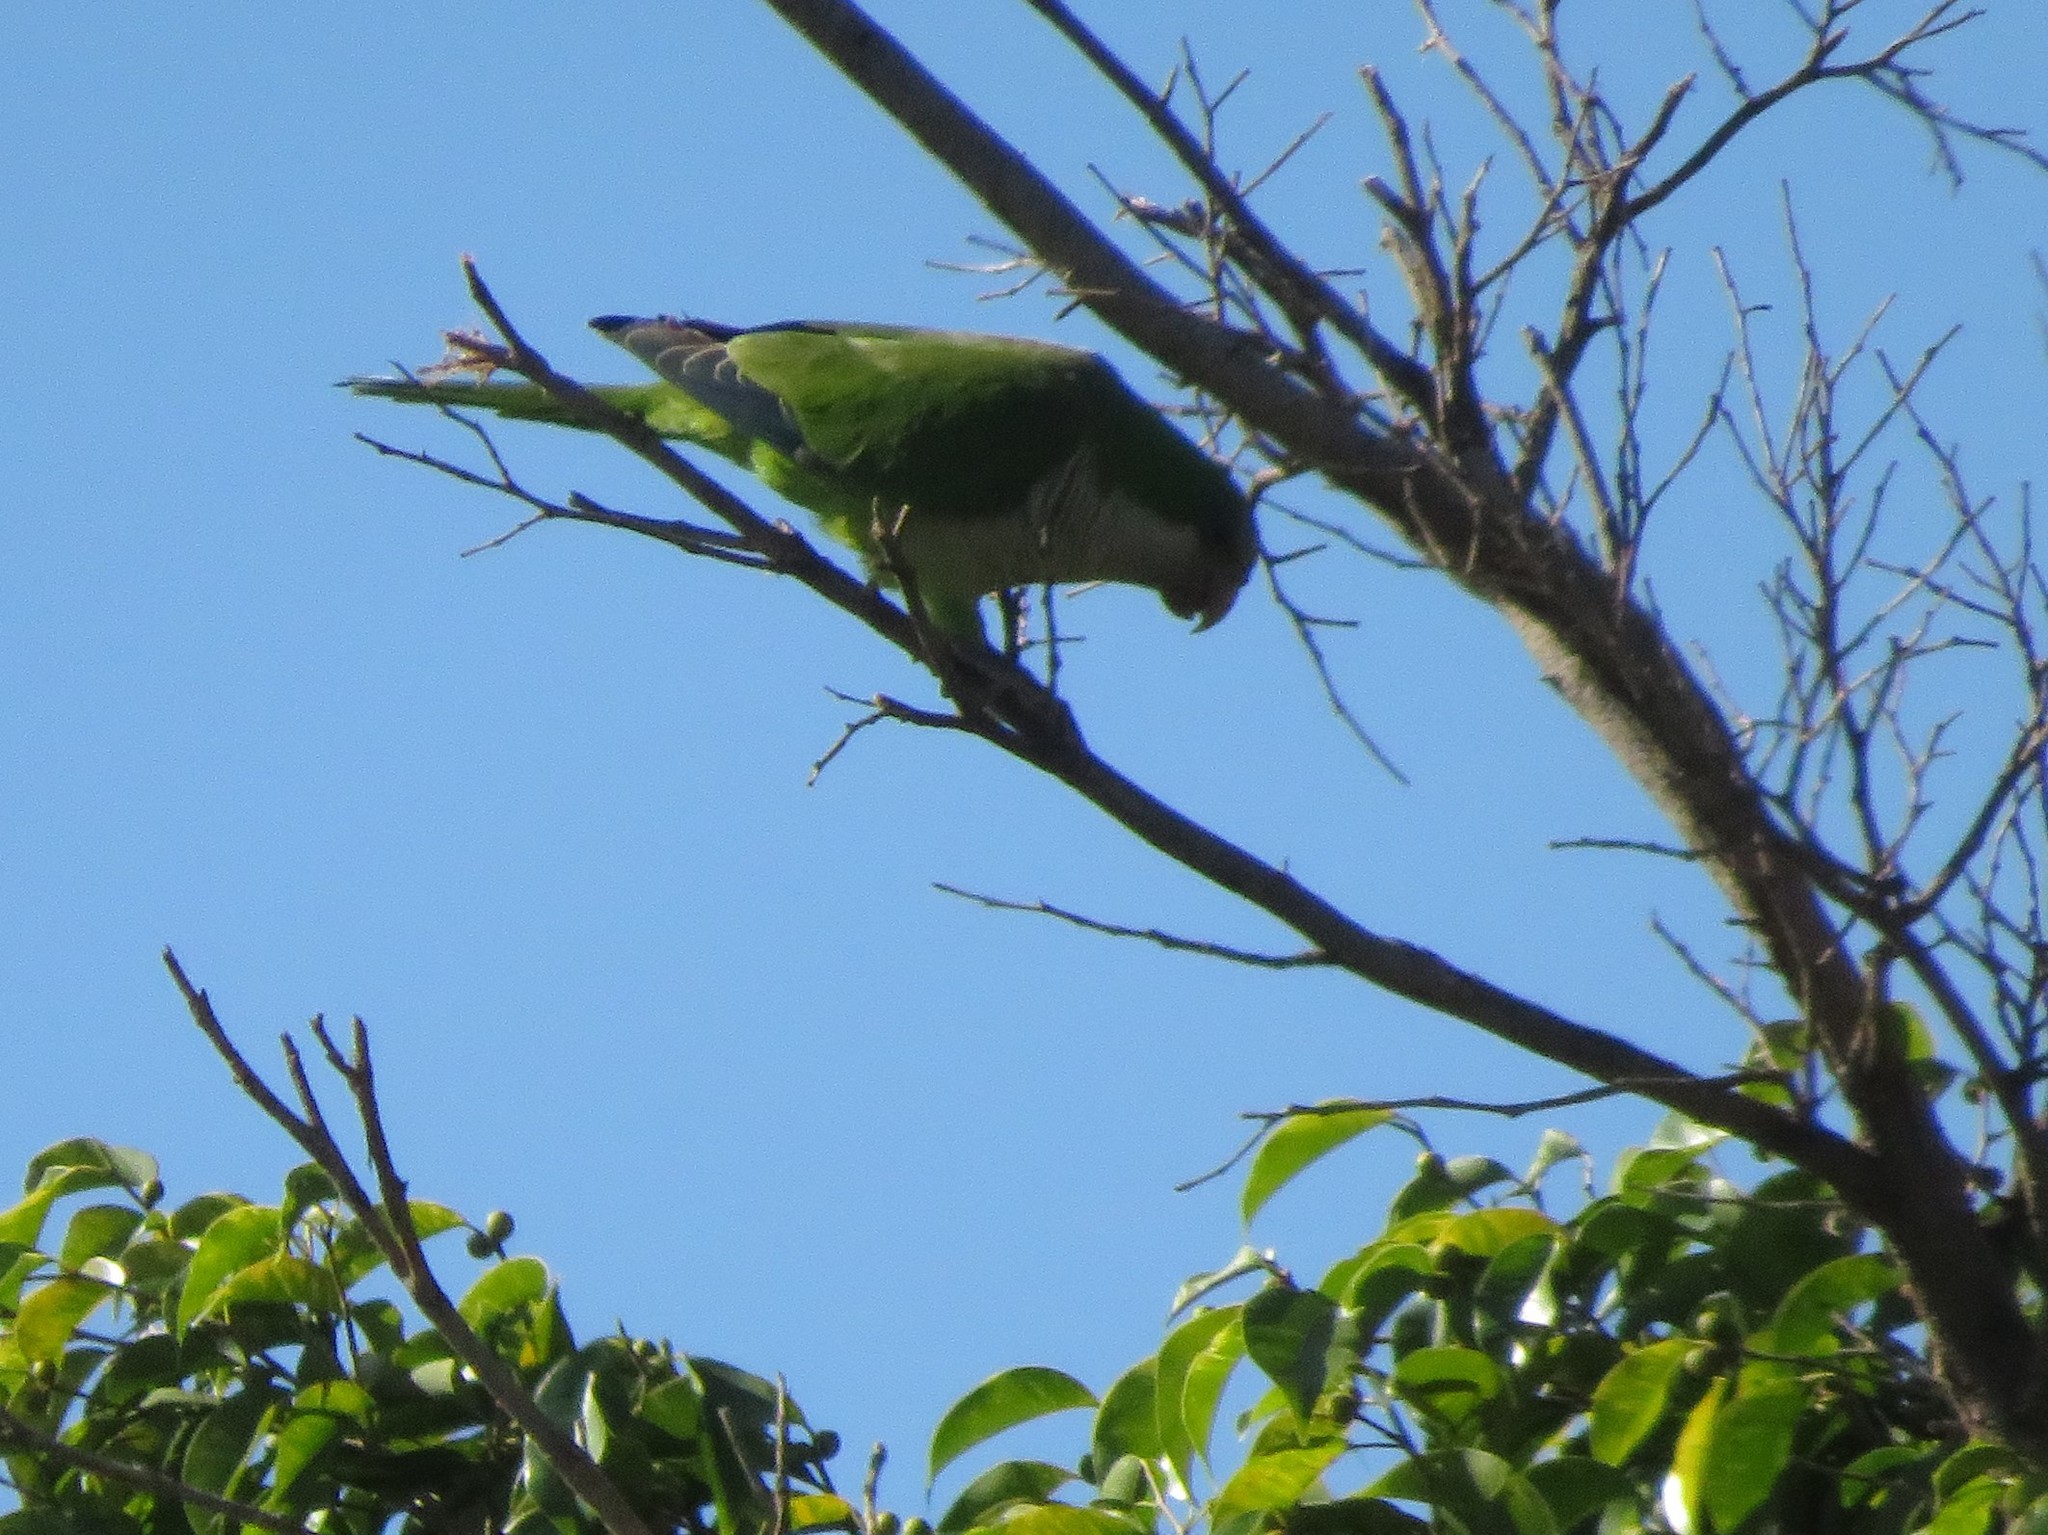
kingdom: Animalia
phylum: Chordata
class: Aves
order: Psittaciformes
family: Psittacidae
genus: Myiopsitta
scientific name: Myiopsitta monachus
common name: Monk parakeet
